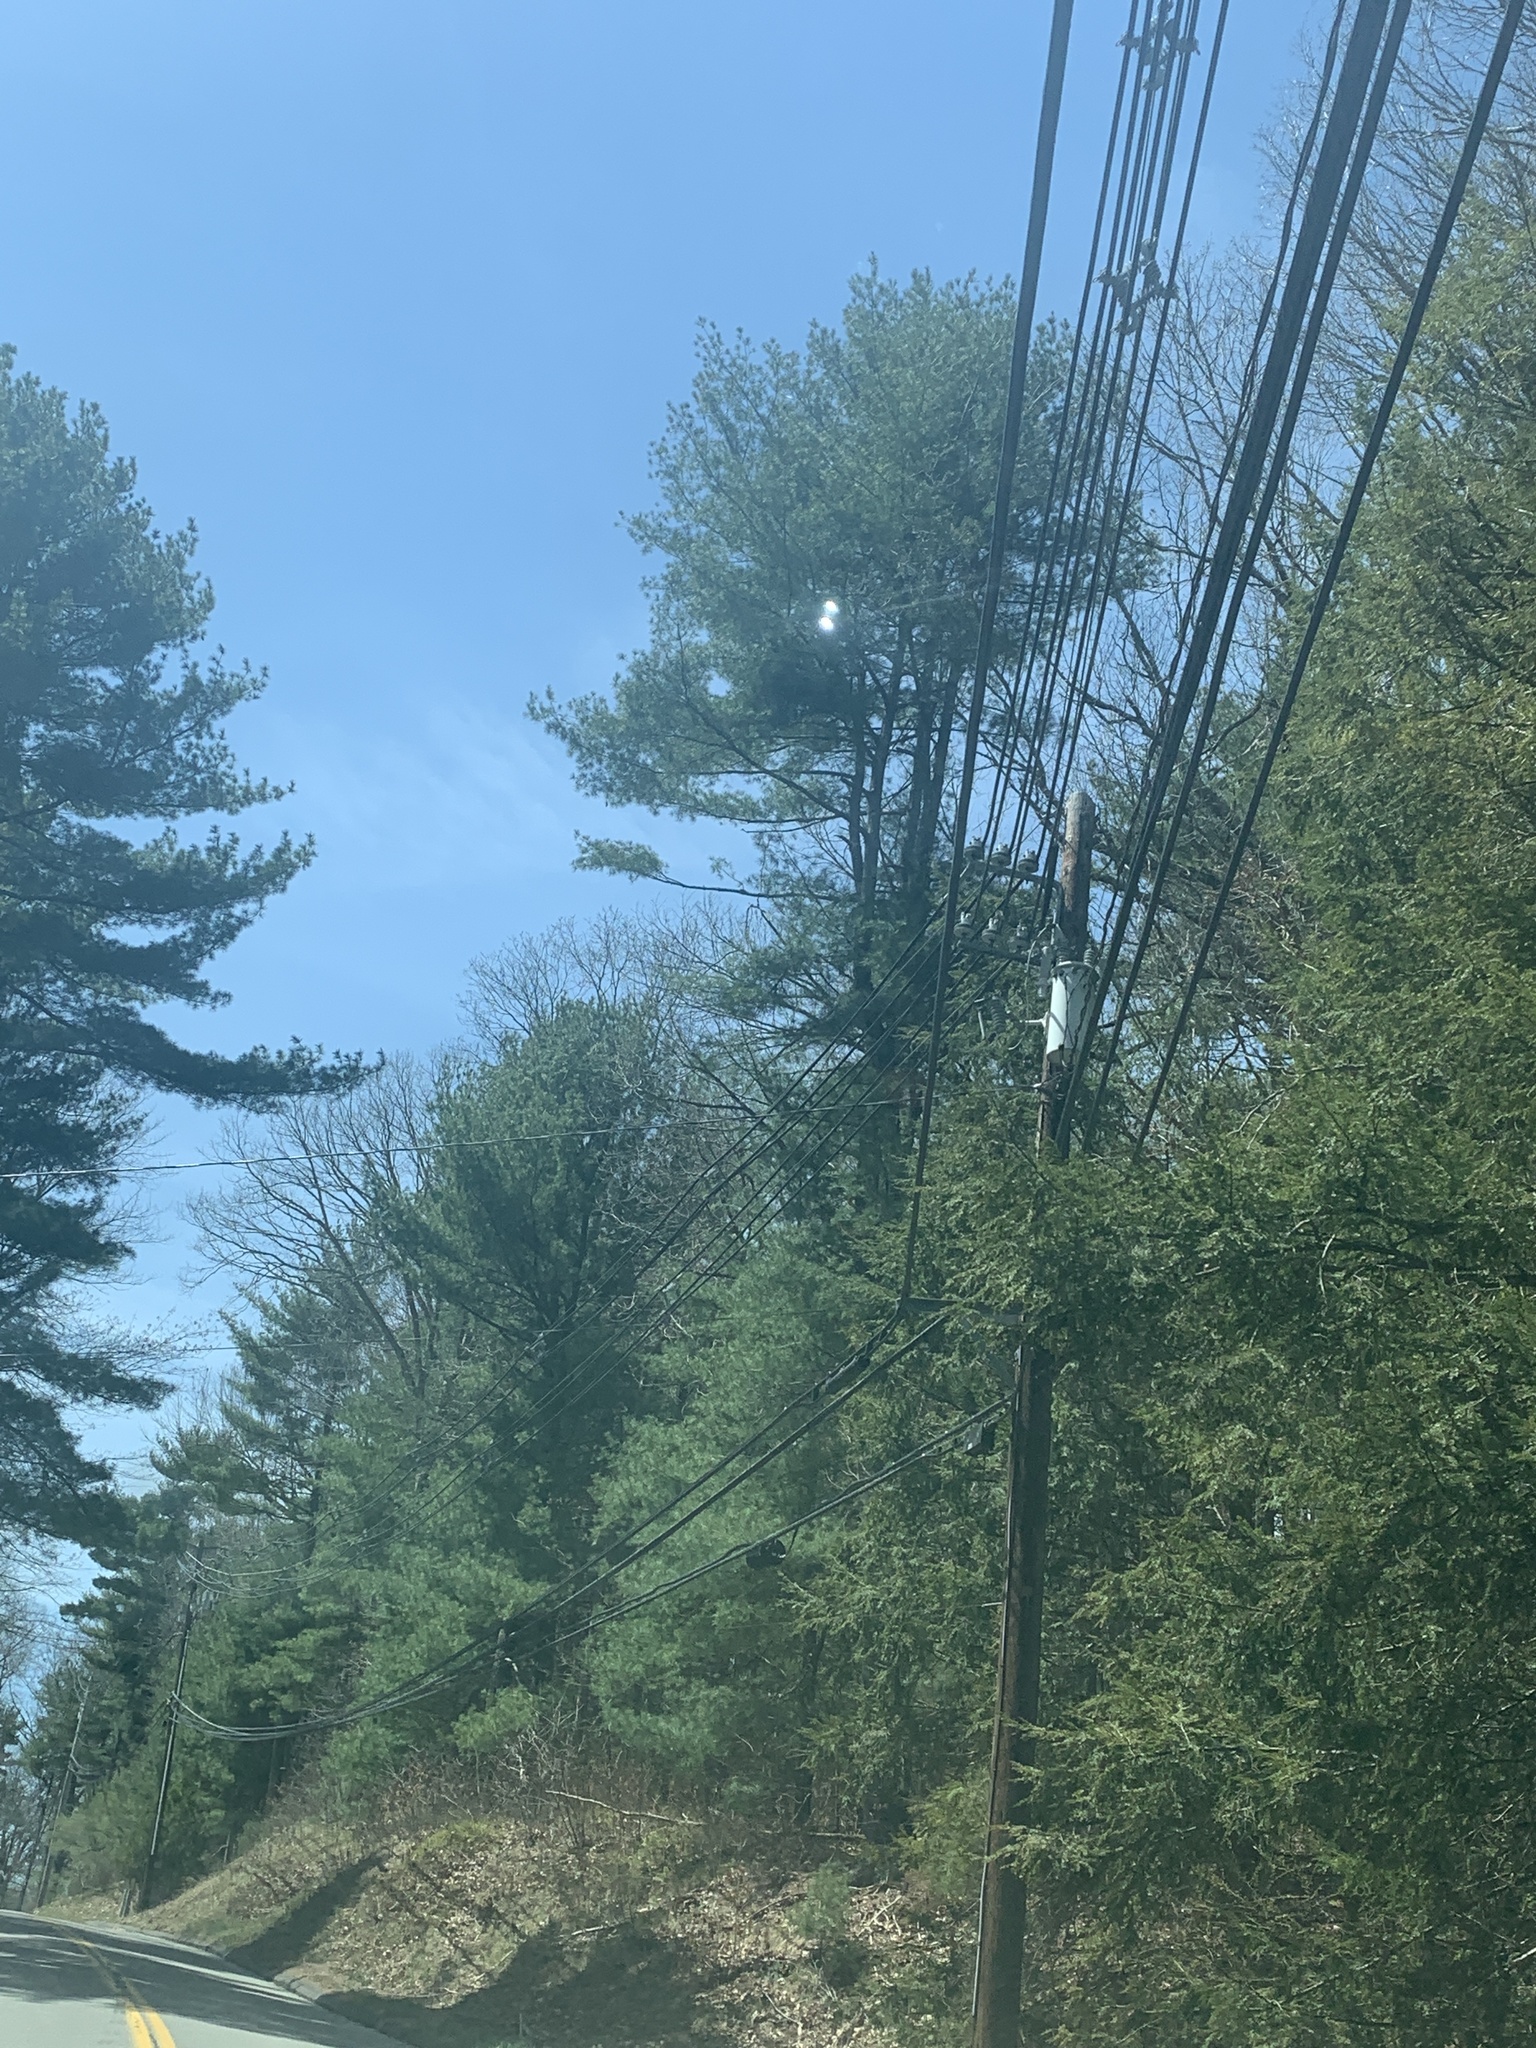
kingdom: Plantae
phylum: Tracheophyta
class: Pinopsida
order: Pinales
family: Pinaceae
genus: Pinus
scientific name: Pinus strobus
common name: Weymouth pine
